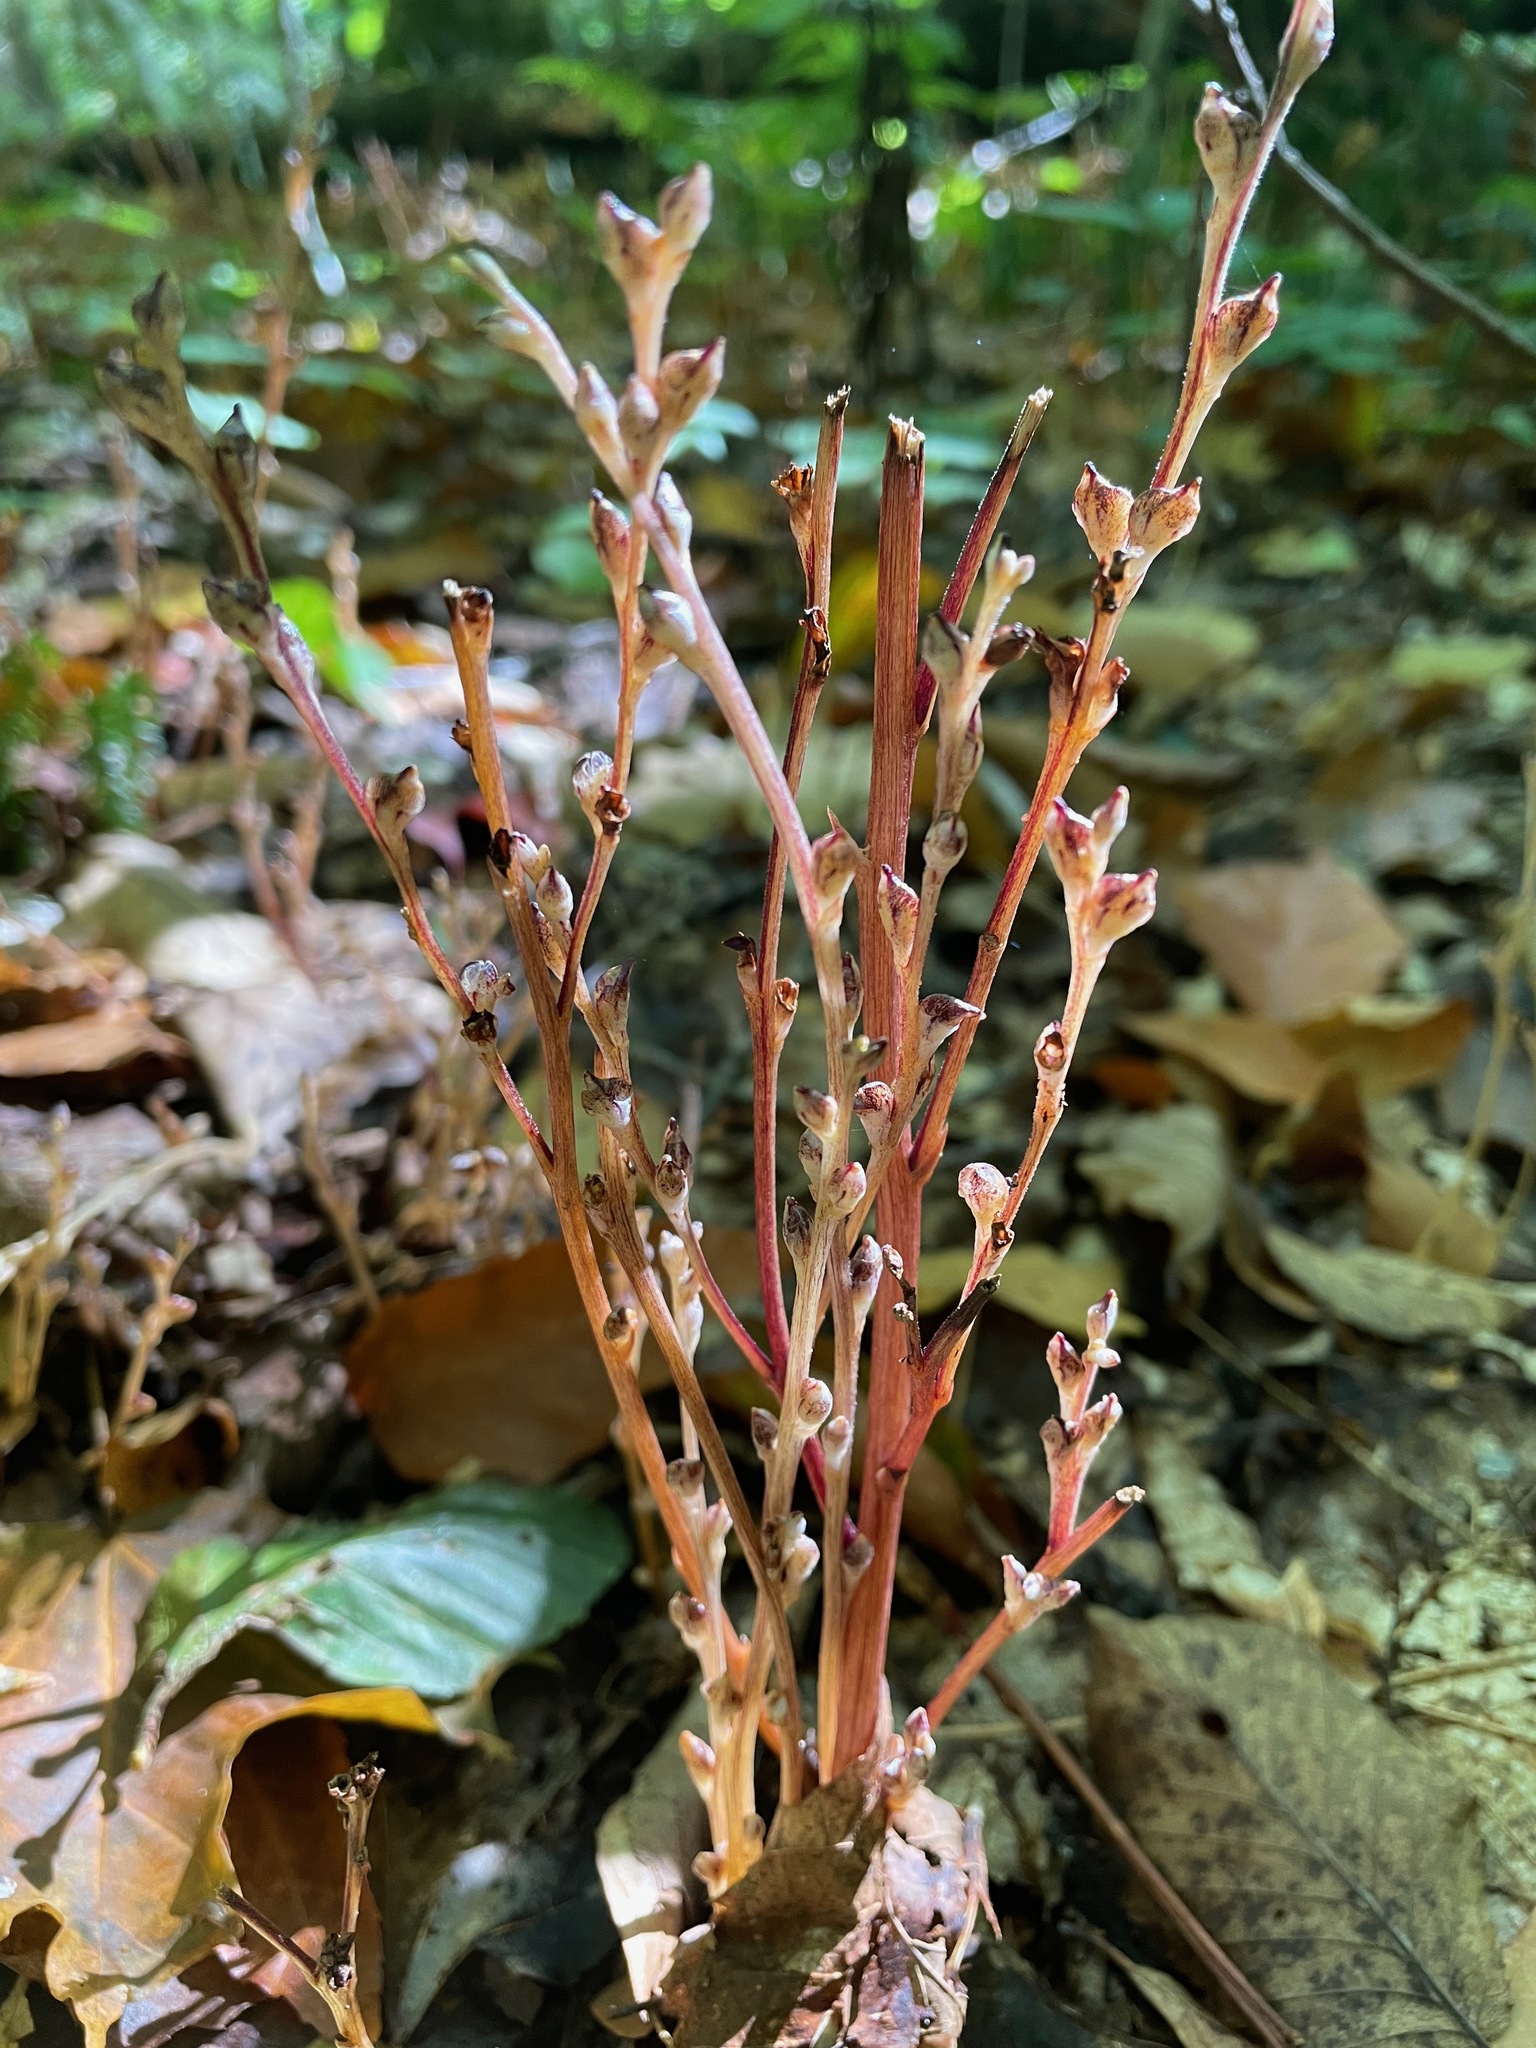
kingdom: Plantae
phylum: Tracheophyta
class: Magnoliopsida
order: Lamiales
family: Orobanchaceae
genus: Epifagus
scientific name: Epifagus virginiana
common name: Beechdrops
